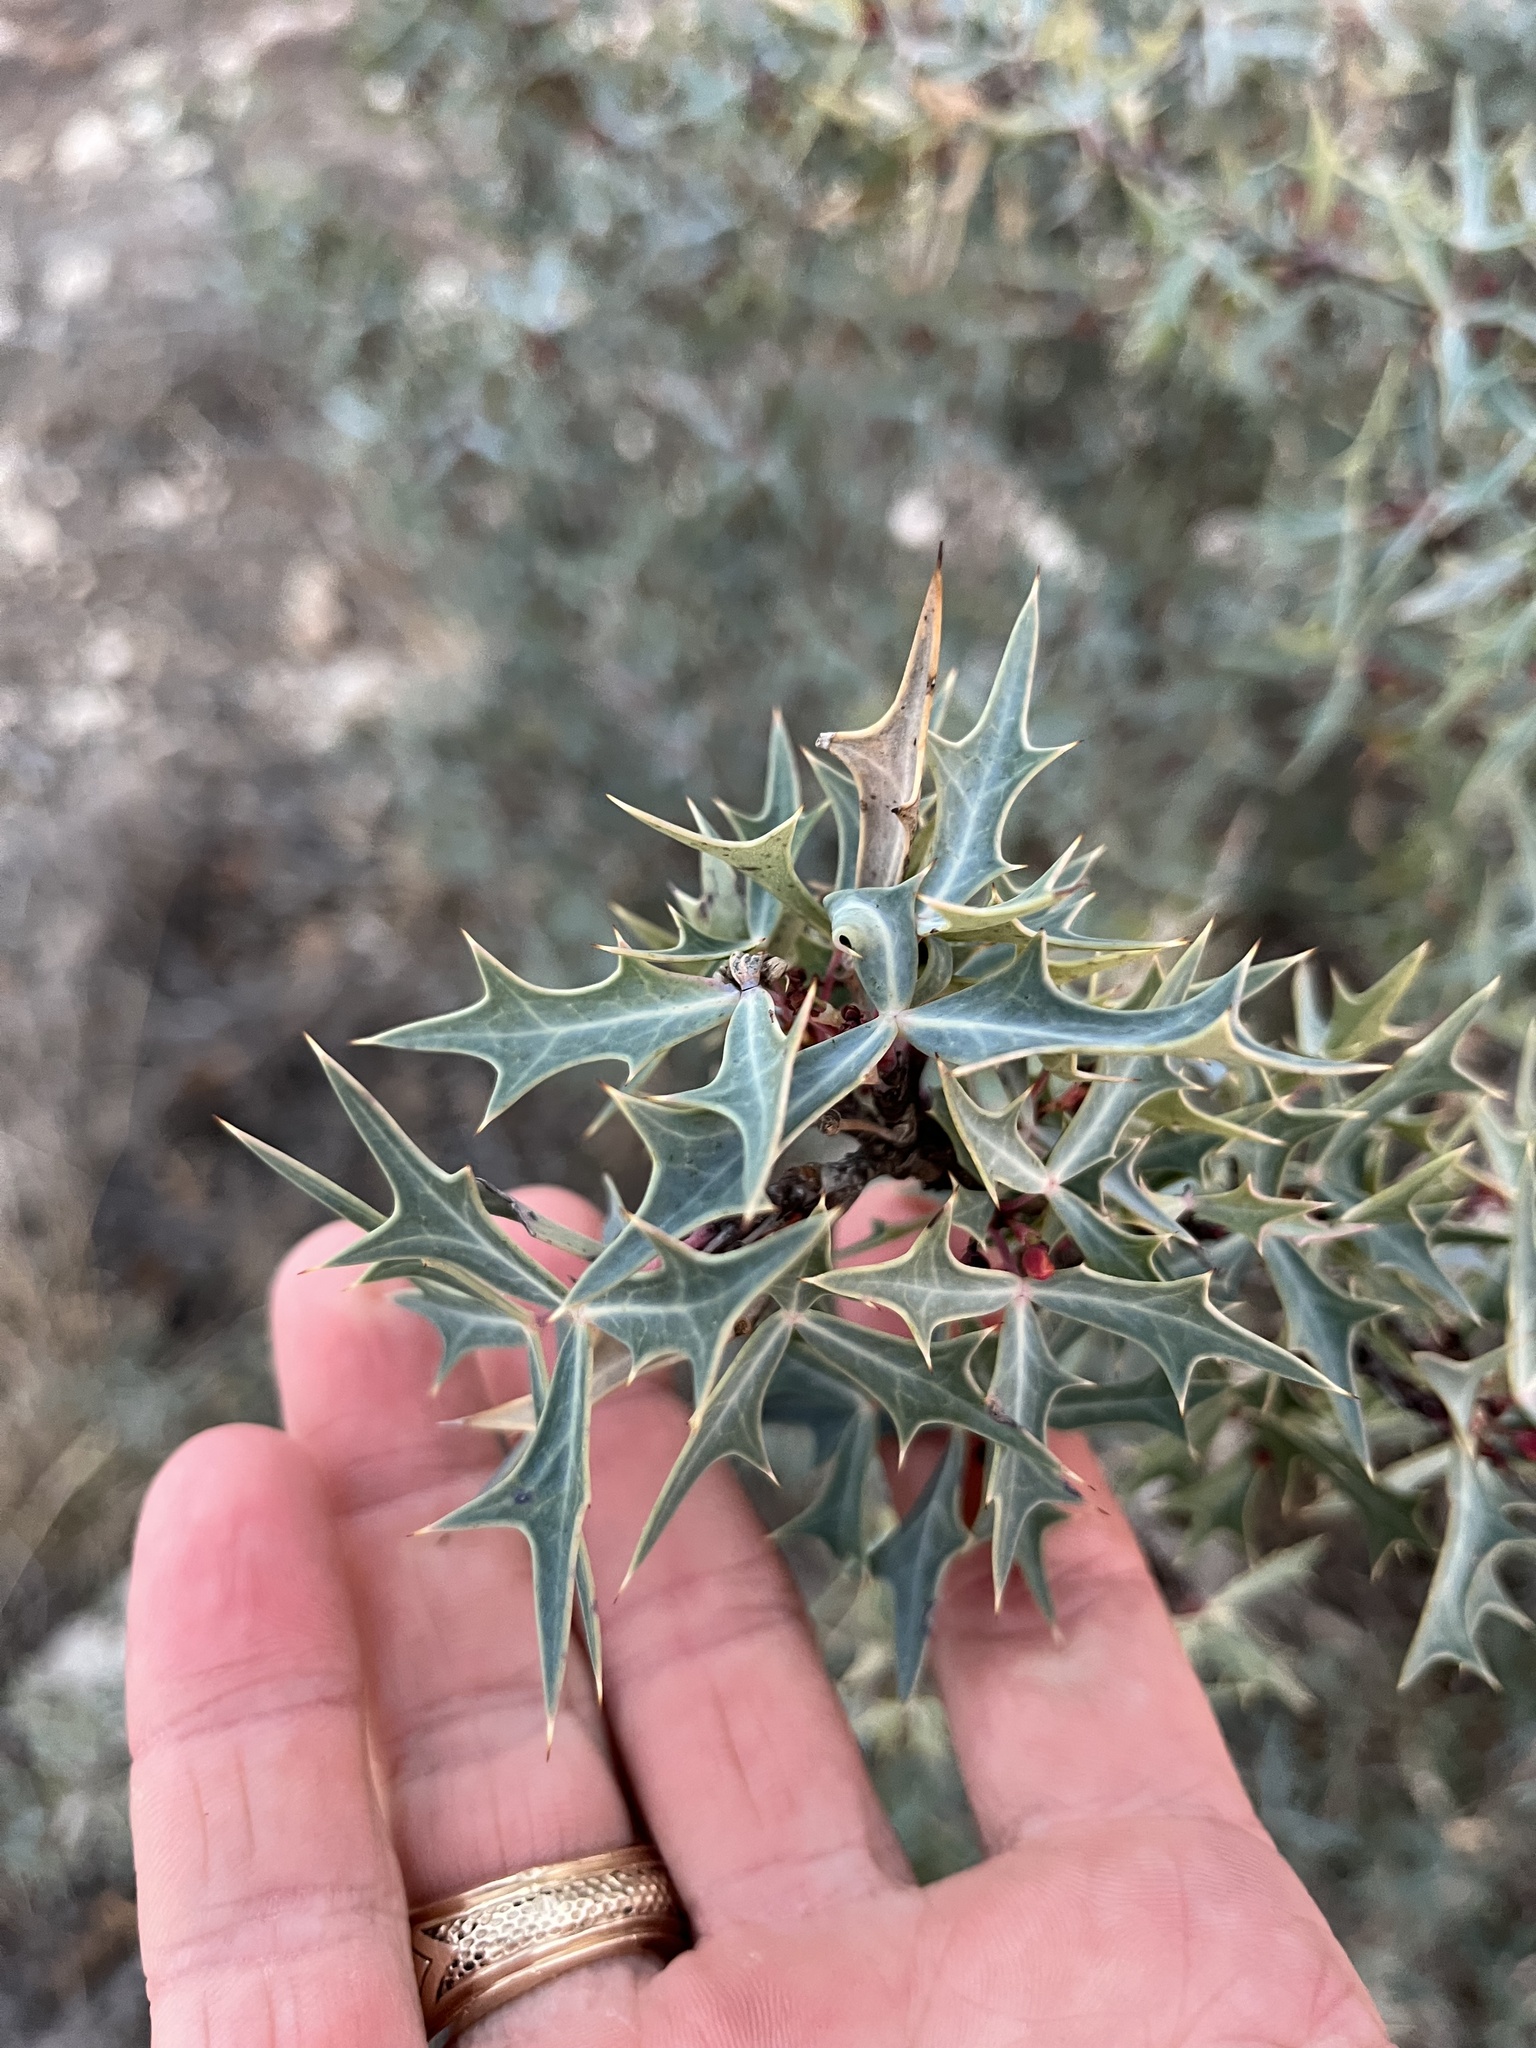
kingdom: Plantae
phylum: Tracheophyta
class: Magnoliopsida
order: Ranunculales
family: Berberidaceae
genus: Alloberberis
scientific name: Alloberberis trifoliolata
